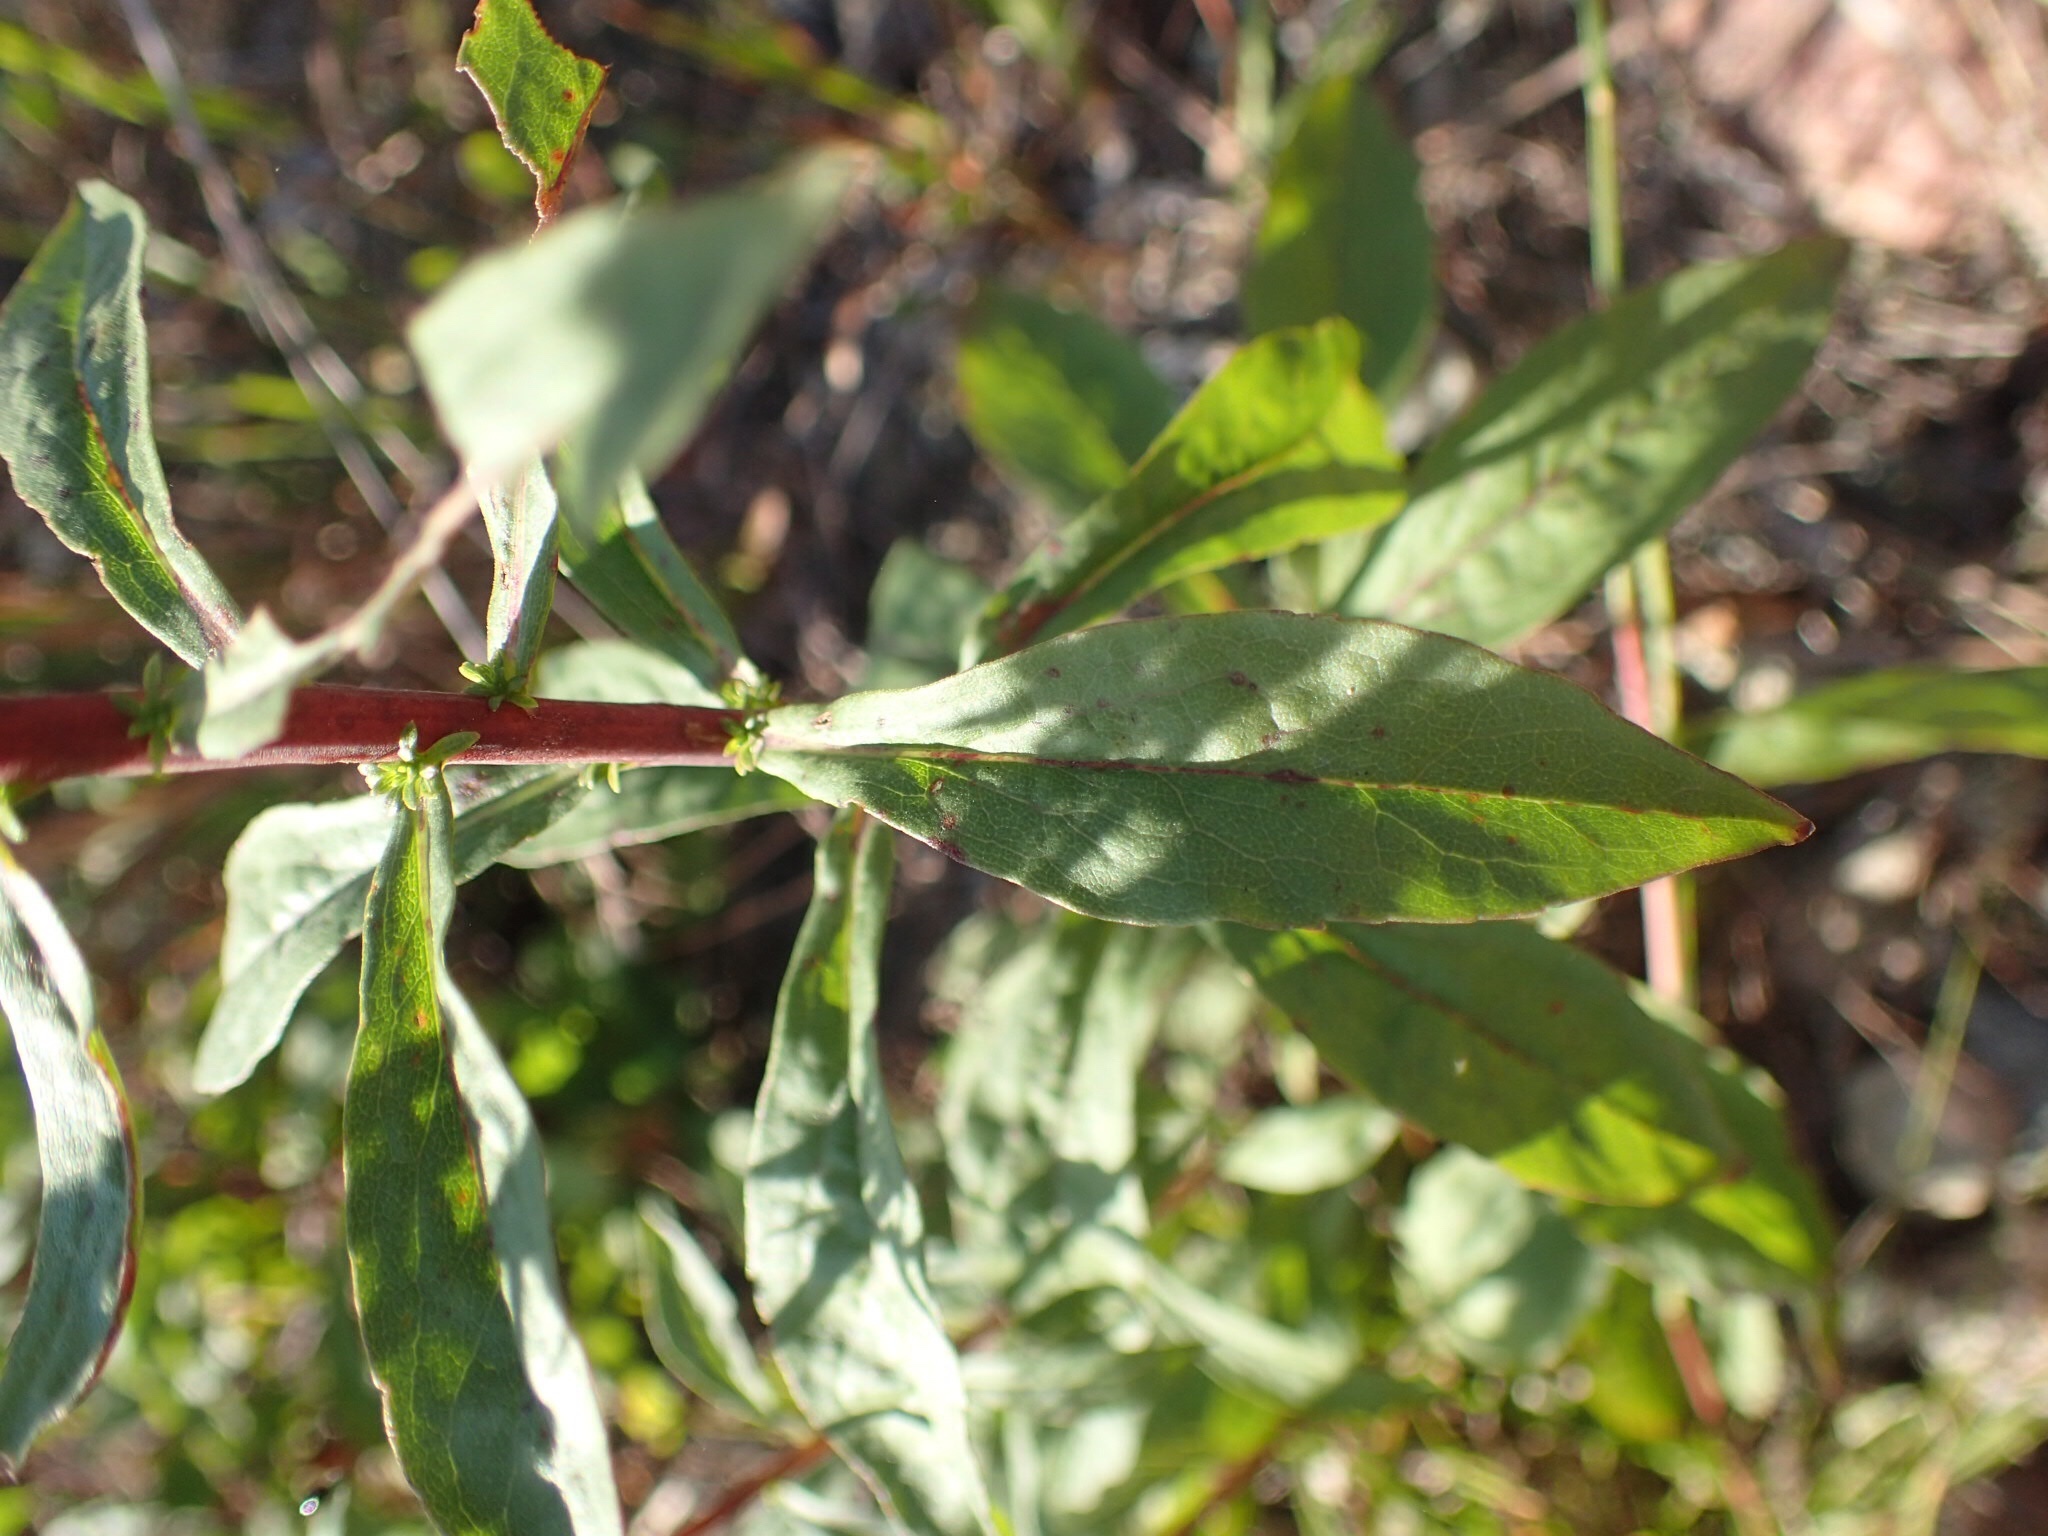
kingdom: Plantae
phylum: Tracheophyta
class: Magnoliopsida
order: Asterales
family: Asteraceae
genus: Solidago
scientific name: Solidago puberula
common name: Downy goldenrod
